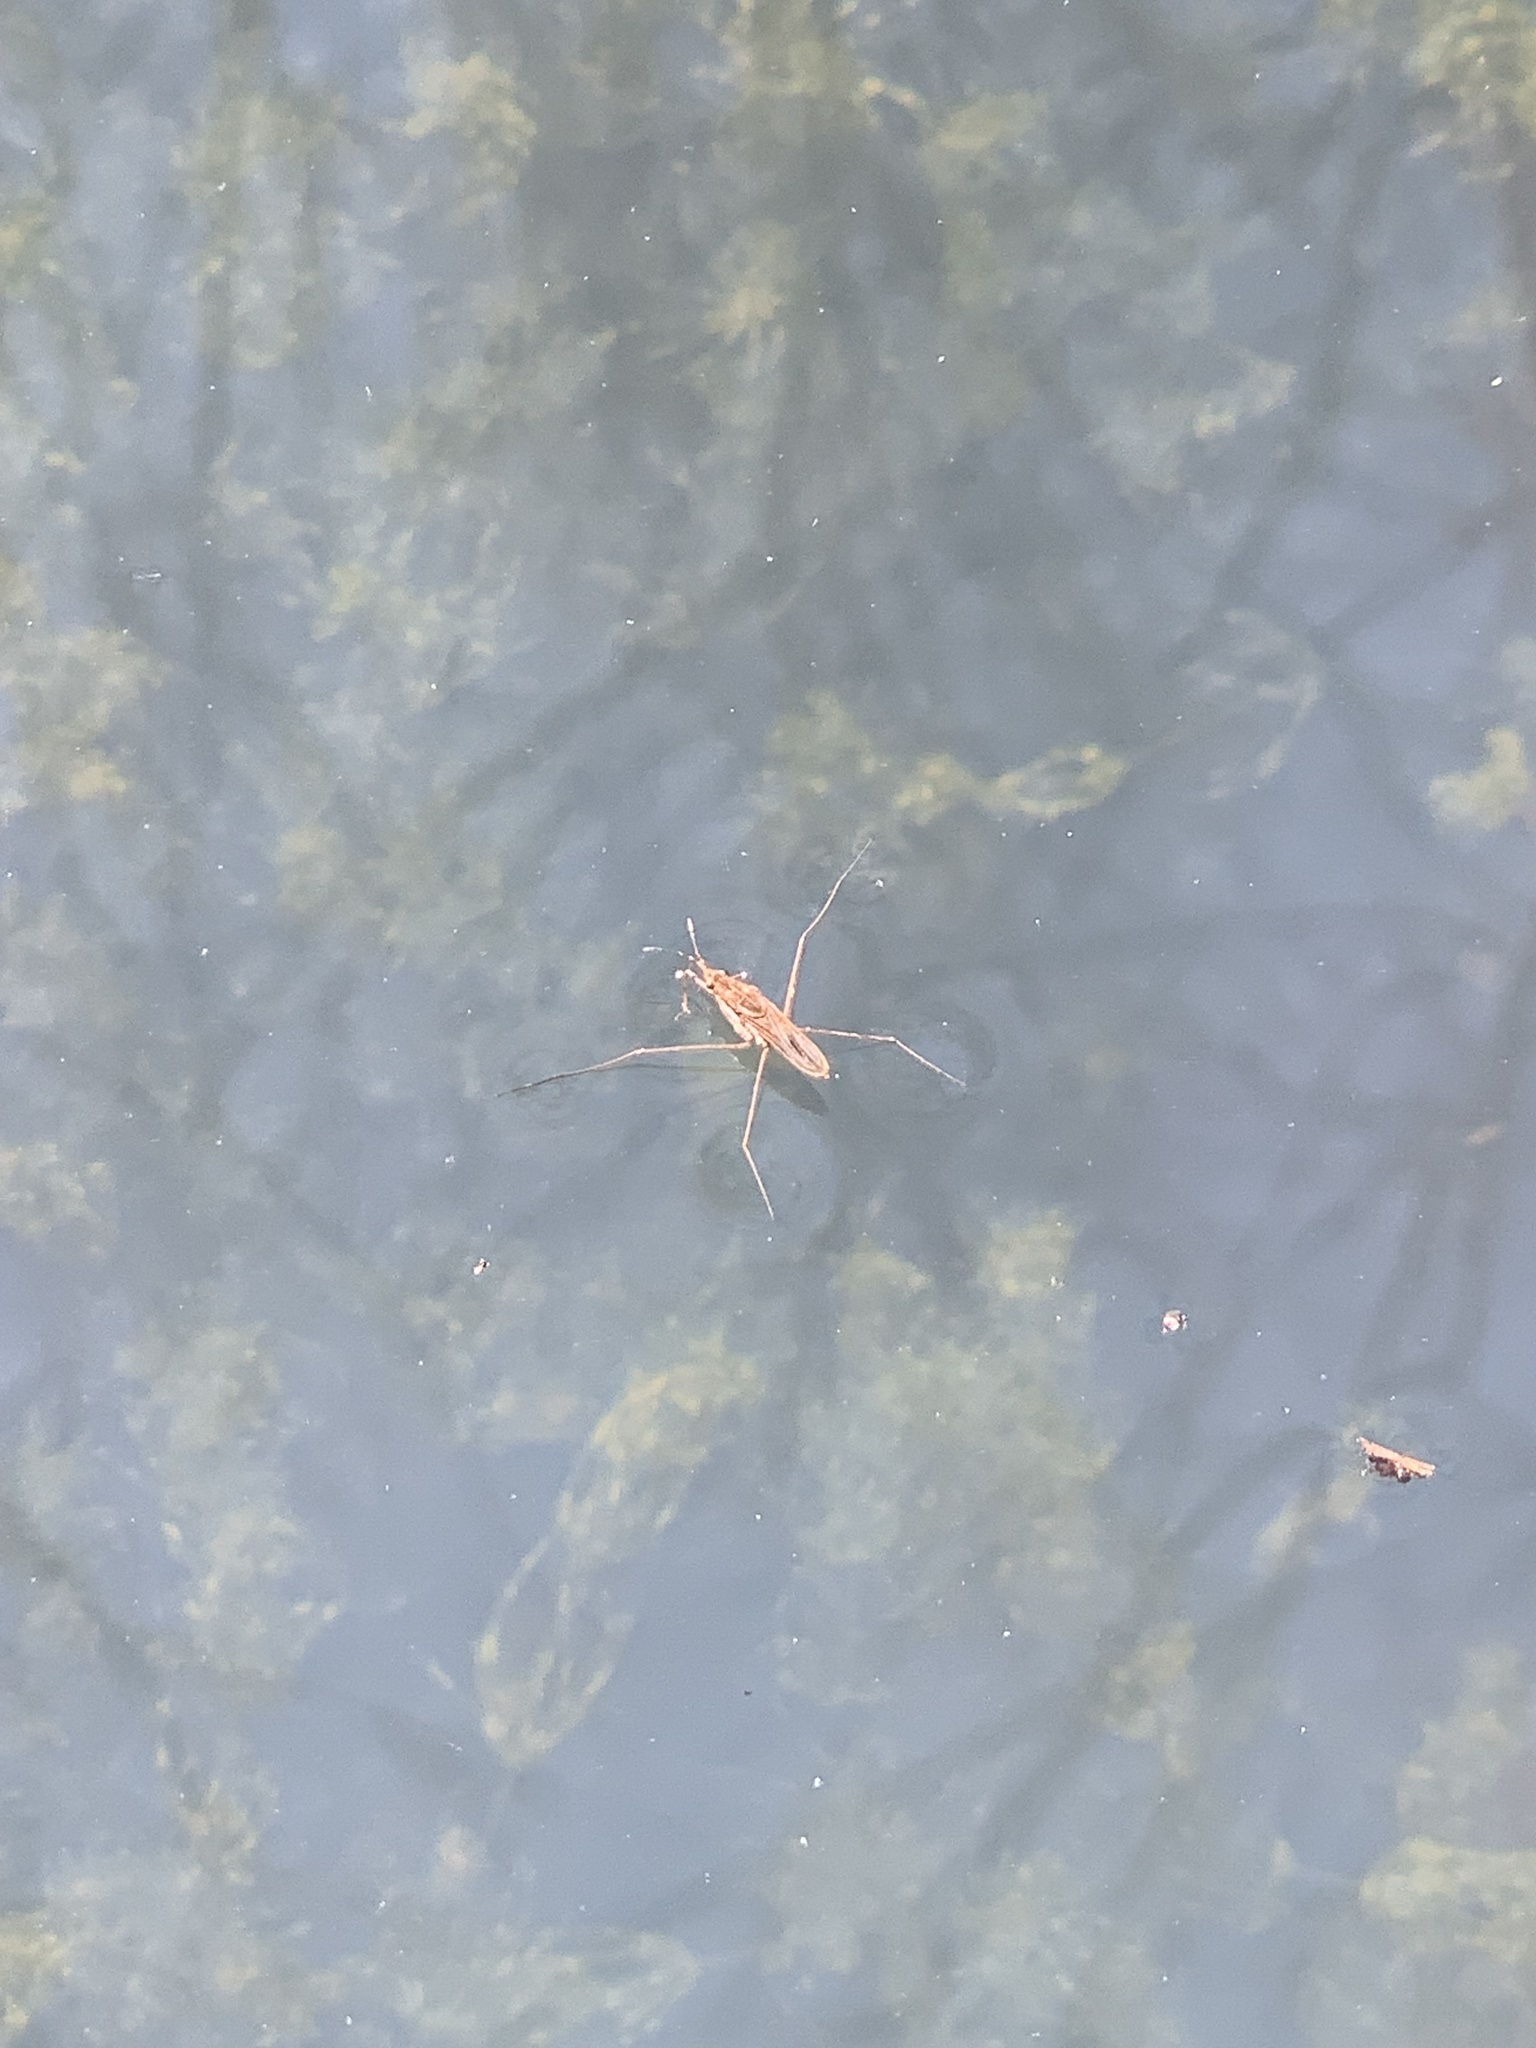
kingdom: Animalia
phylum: Arthropoda
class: Insecta
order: Hemiptera
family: Gerridae
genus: Gerris
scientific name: Gerris
